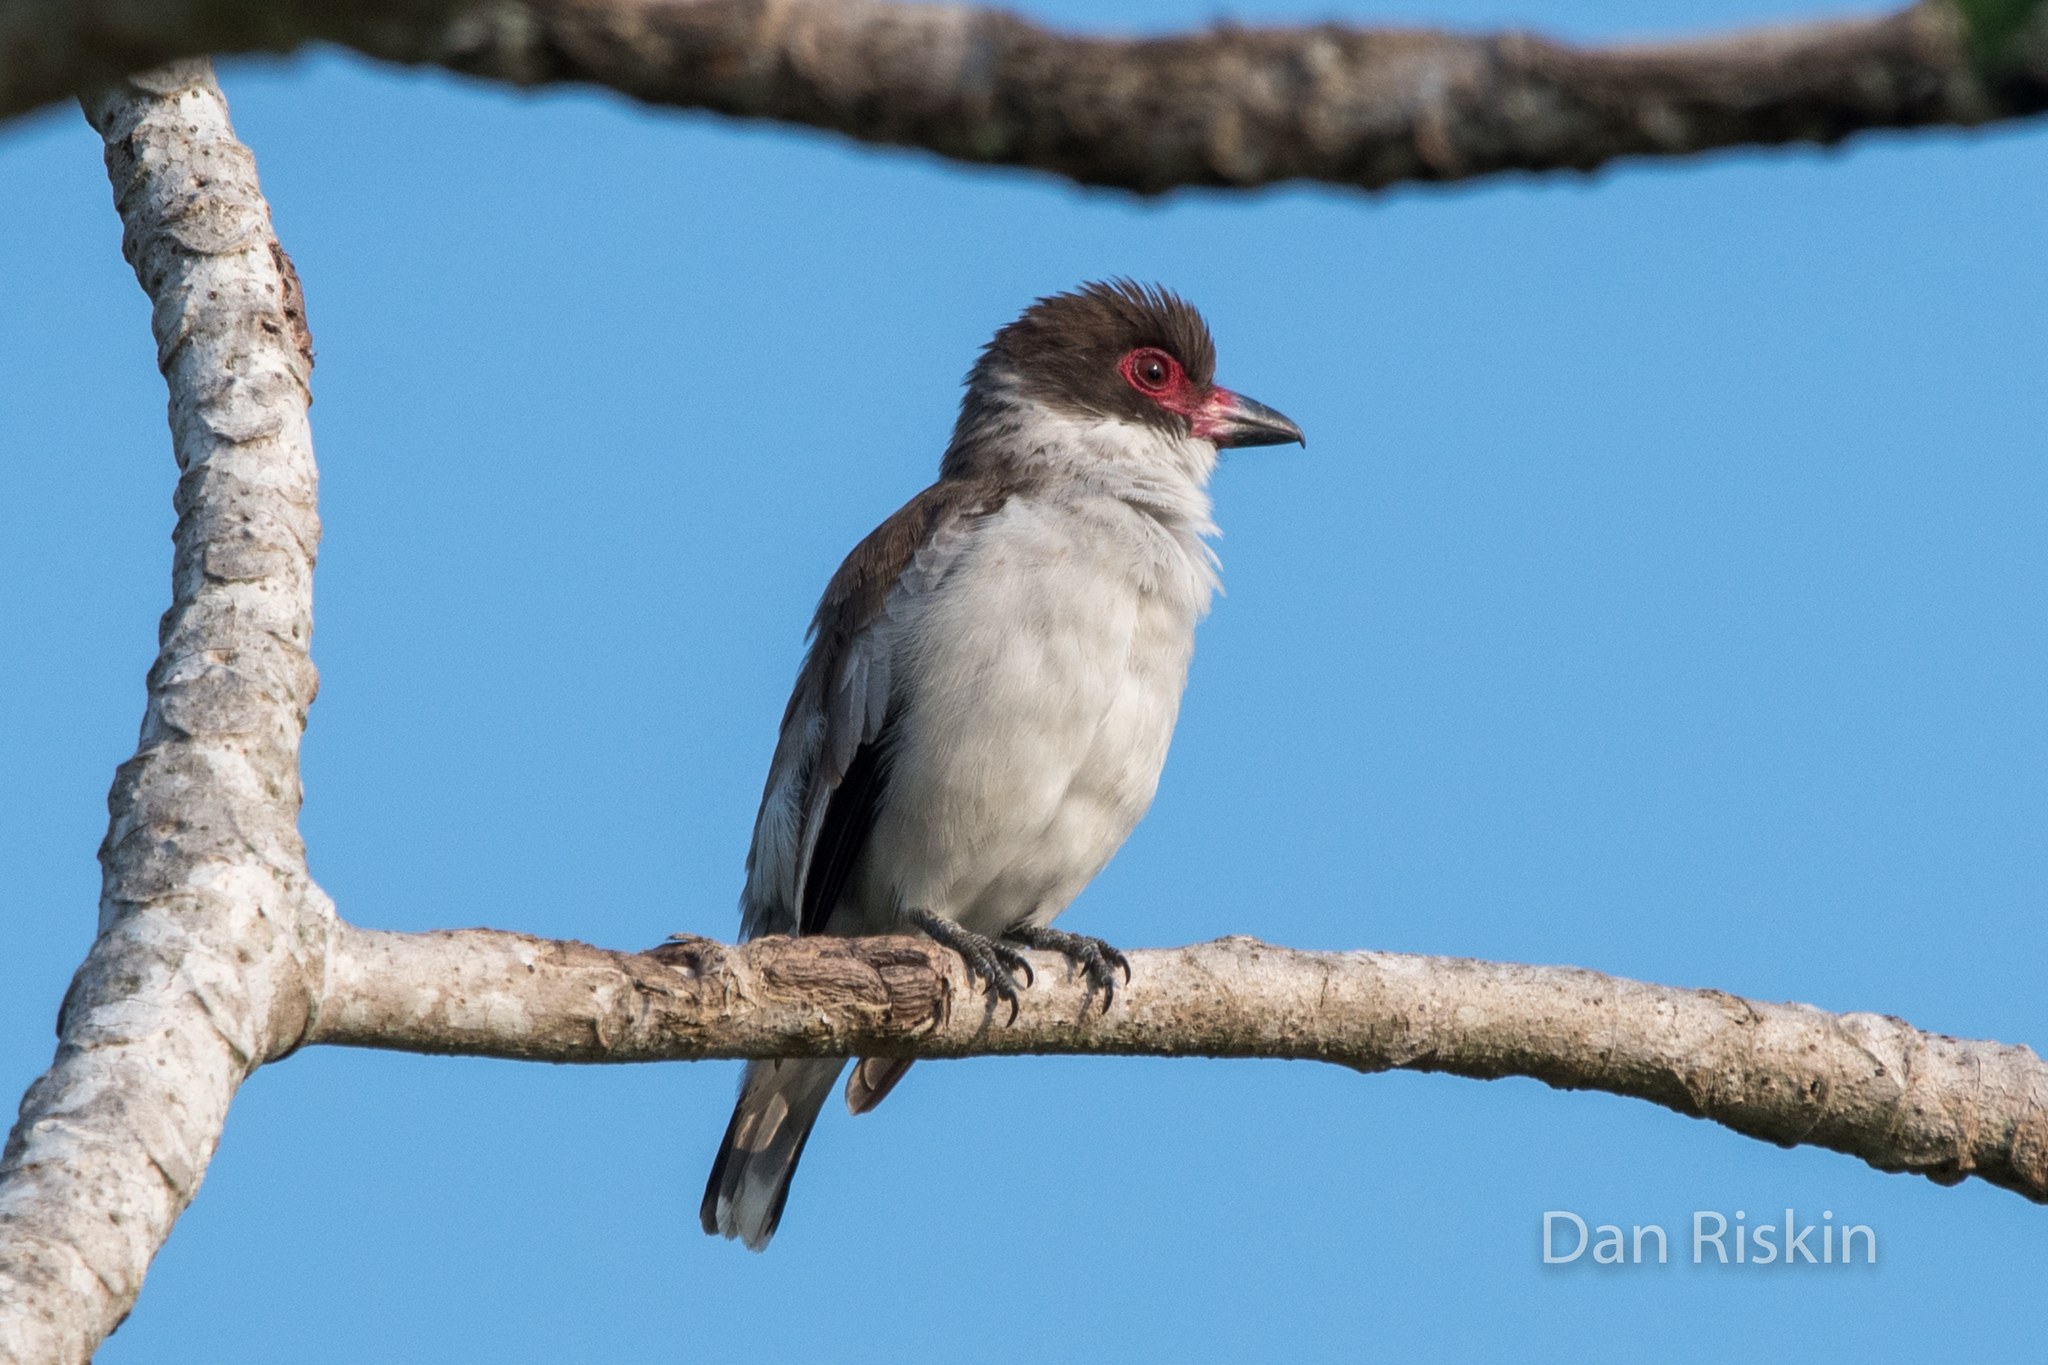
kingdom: Animalia
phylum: Chordata
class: Aves
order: Passeriformes
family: Cotingidae
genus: Tityra
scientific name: Tityra semifasciata
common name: Masked tityra
